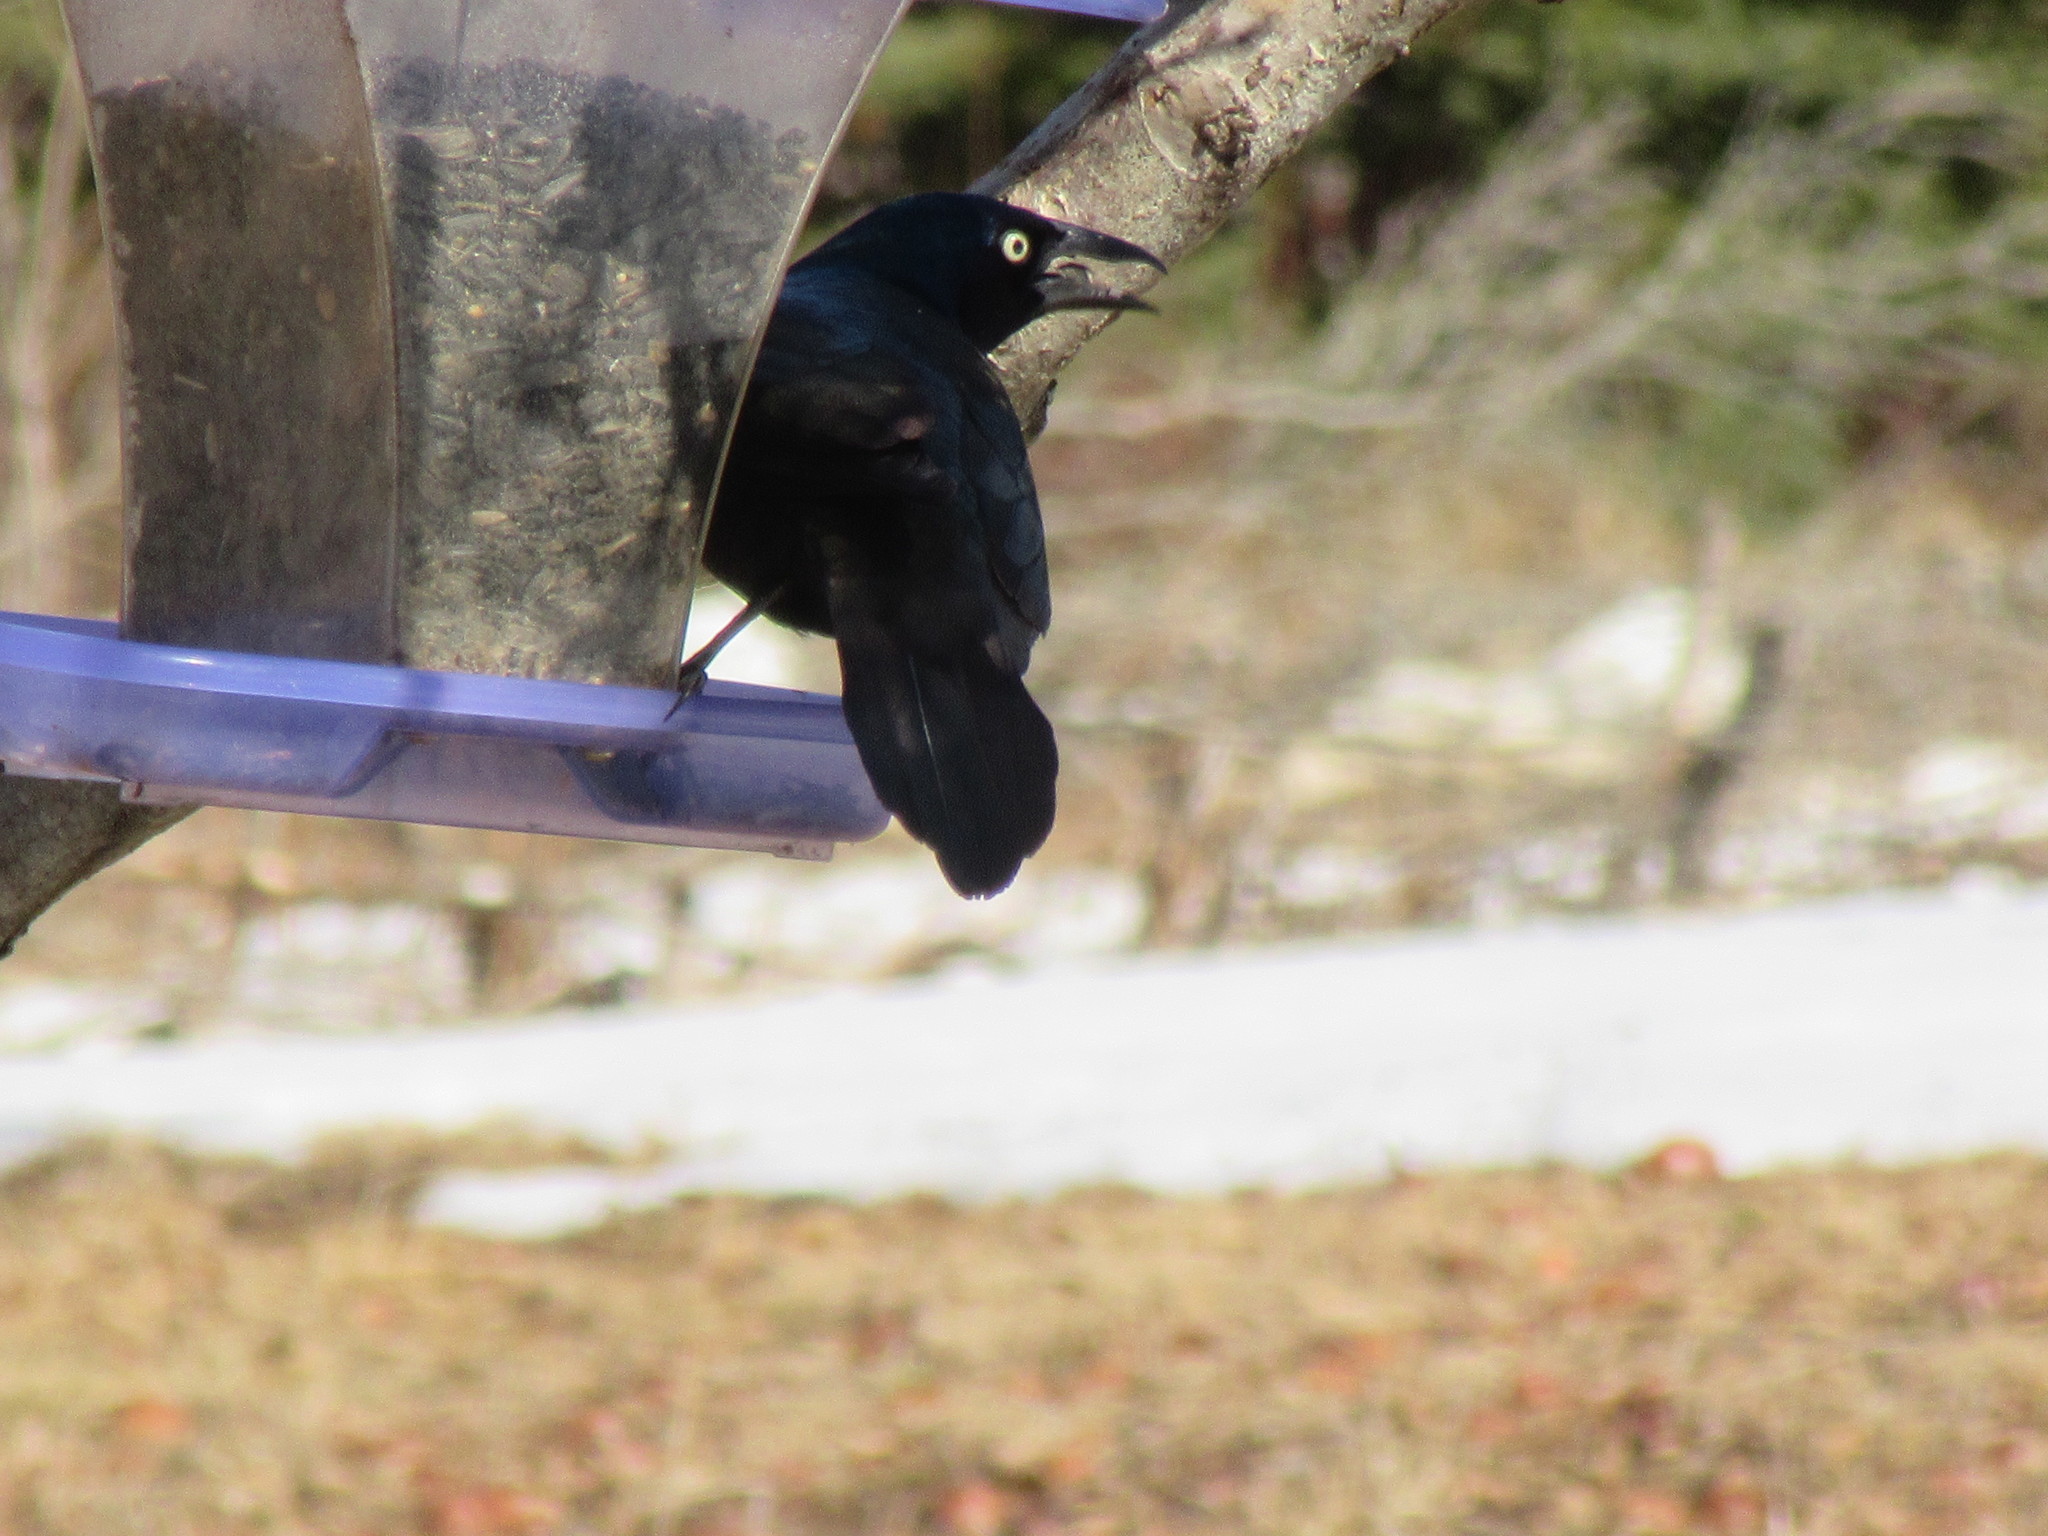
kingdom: Animalia
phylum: Chordata
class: Aves
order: Passeriformes
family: Icteridae
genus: Quiscalus
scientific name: Quiscalus quiscula
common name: Common grackle
